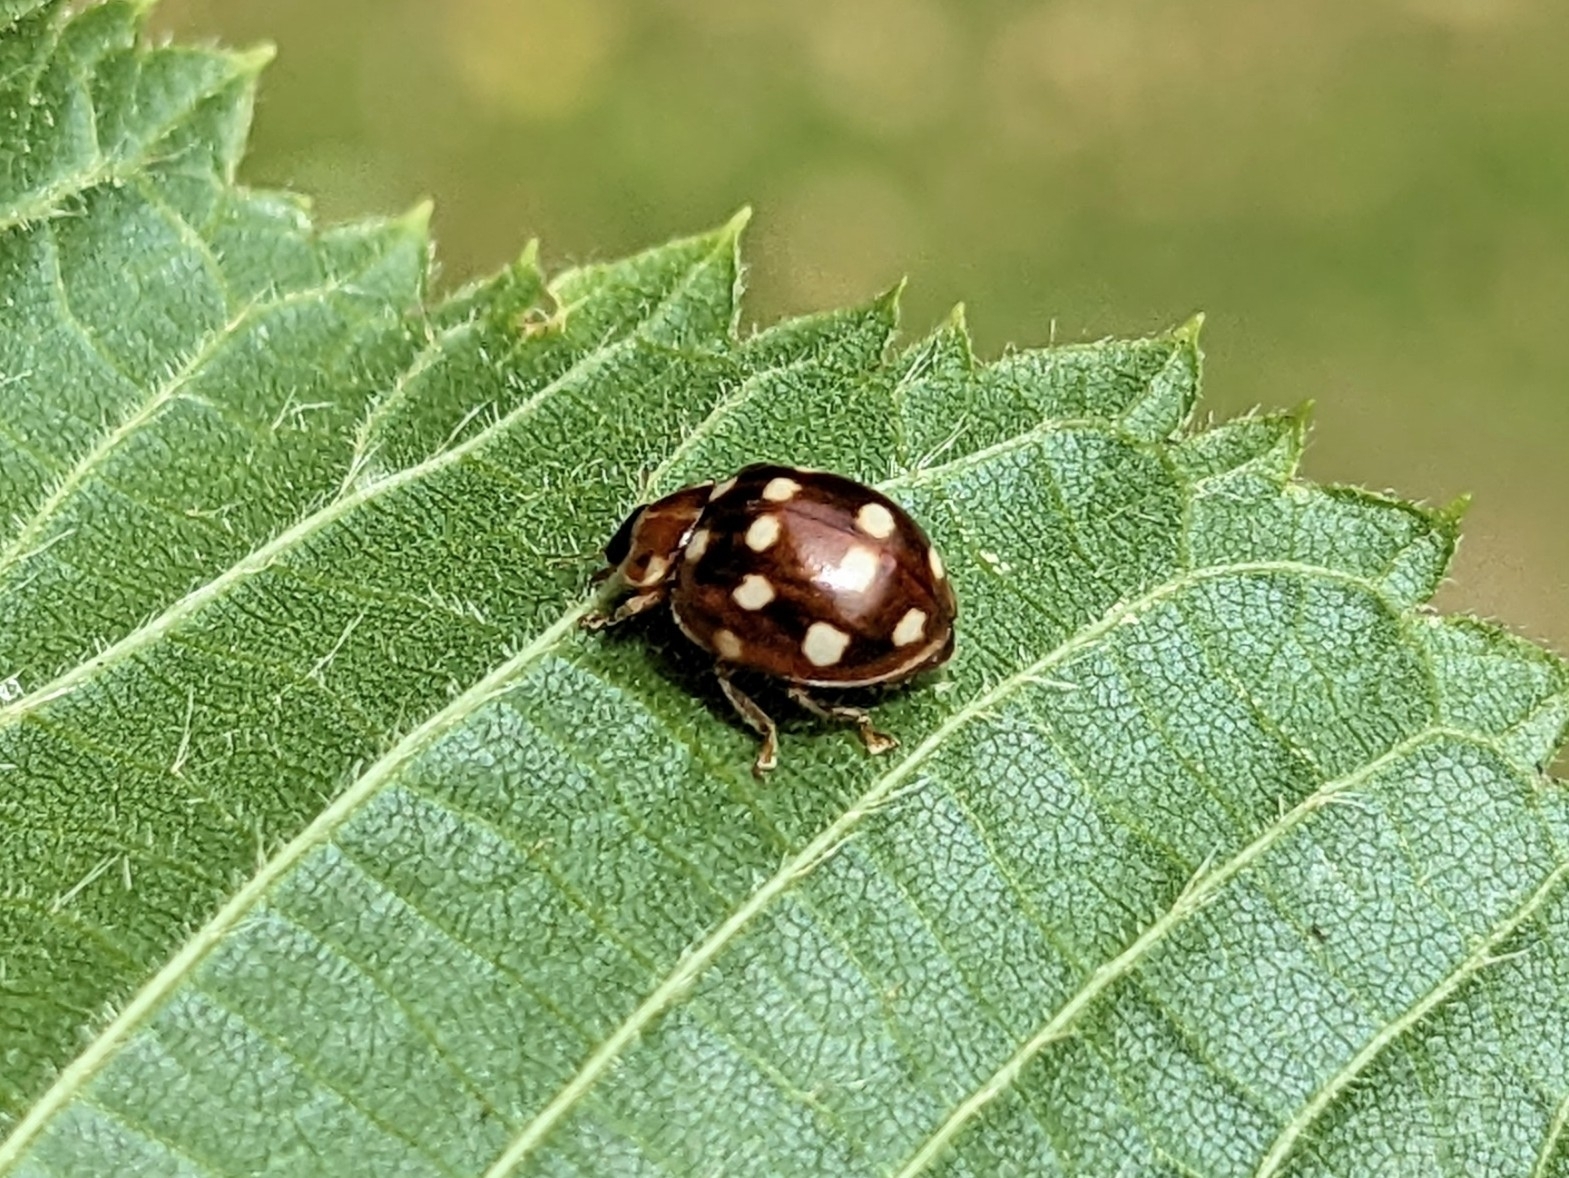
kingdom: Animalia
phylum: Arthropoda
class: Insecta
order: Coleoptera
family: Coccinellidae
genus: Calvia
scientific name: Calvia quatuordecimguttata
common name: Cream-spot ladybird
